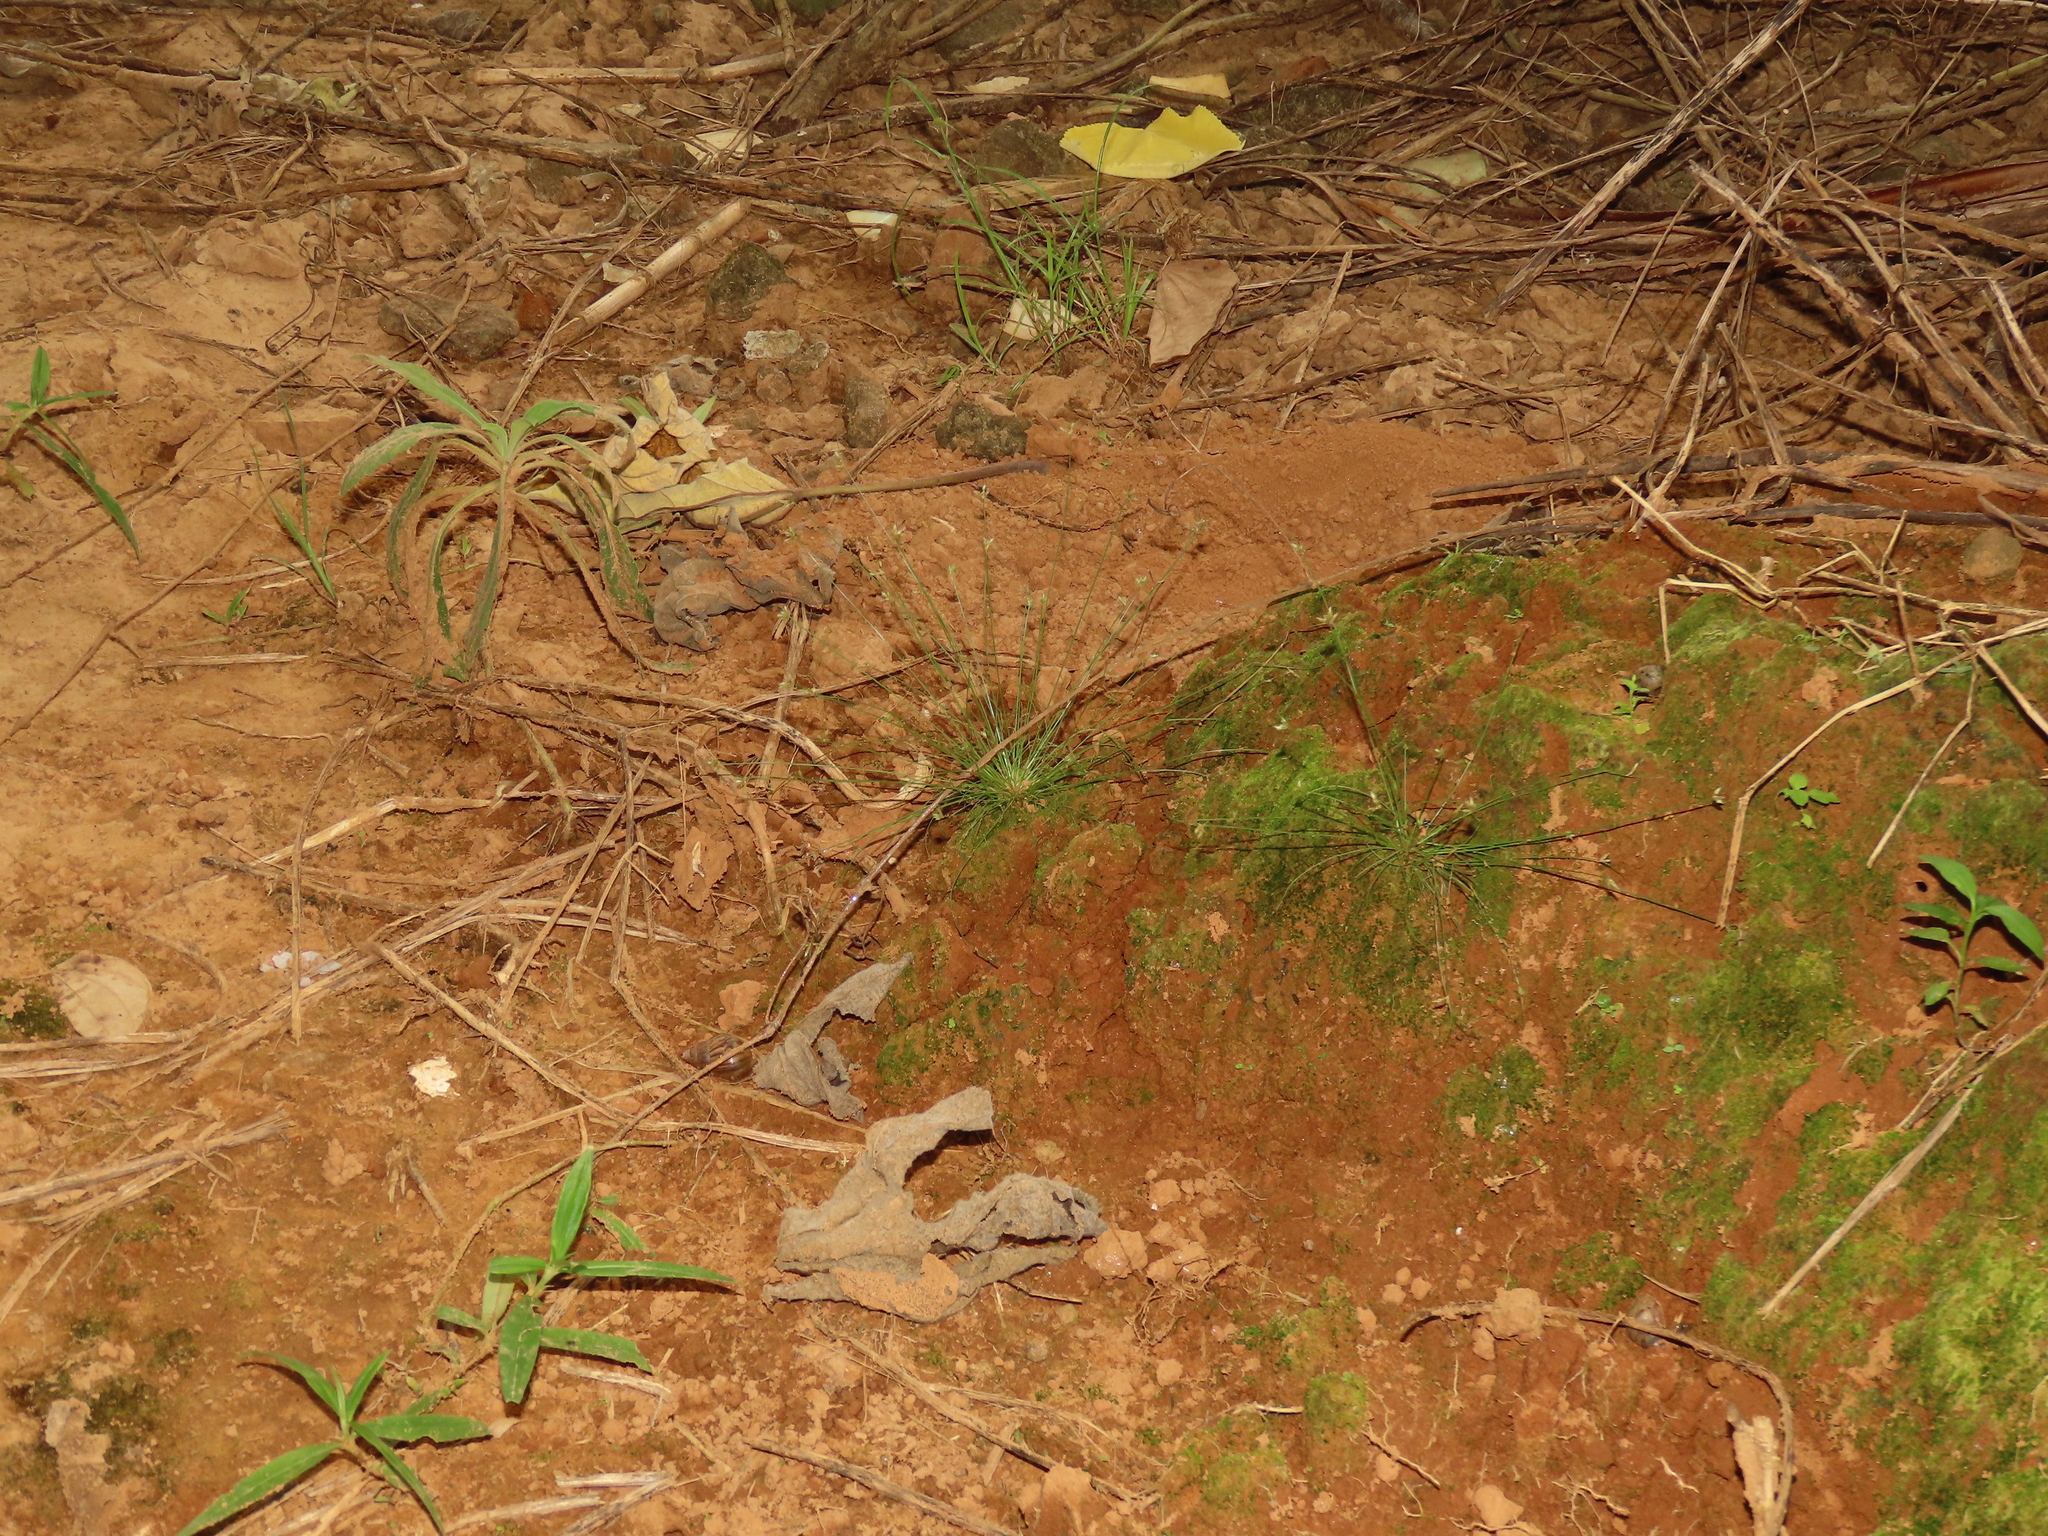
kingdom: Plantae
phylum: Tracheophyta
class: Liliopsida
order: Poales
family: Cyperaceae
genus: Bulbostylis
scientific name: Bulbostylis barbata
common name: Watergrass
